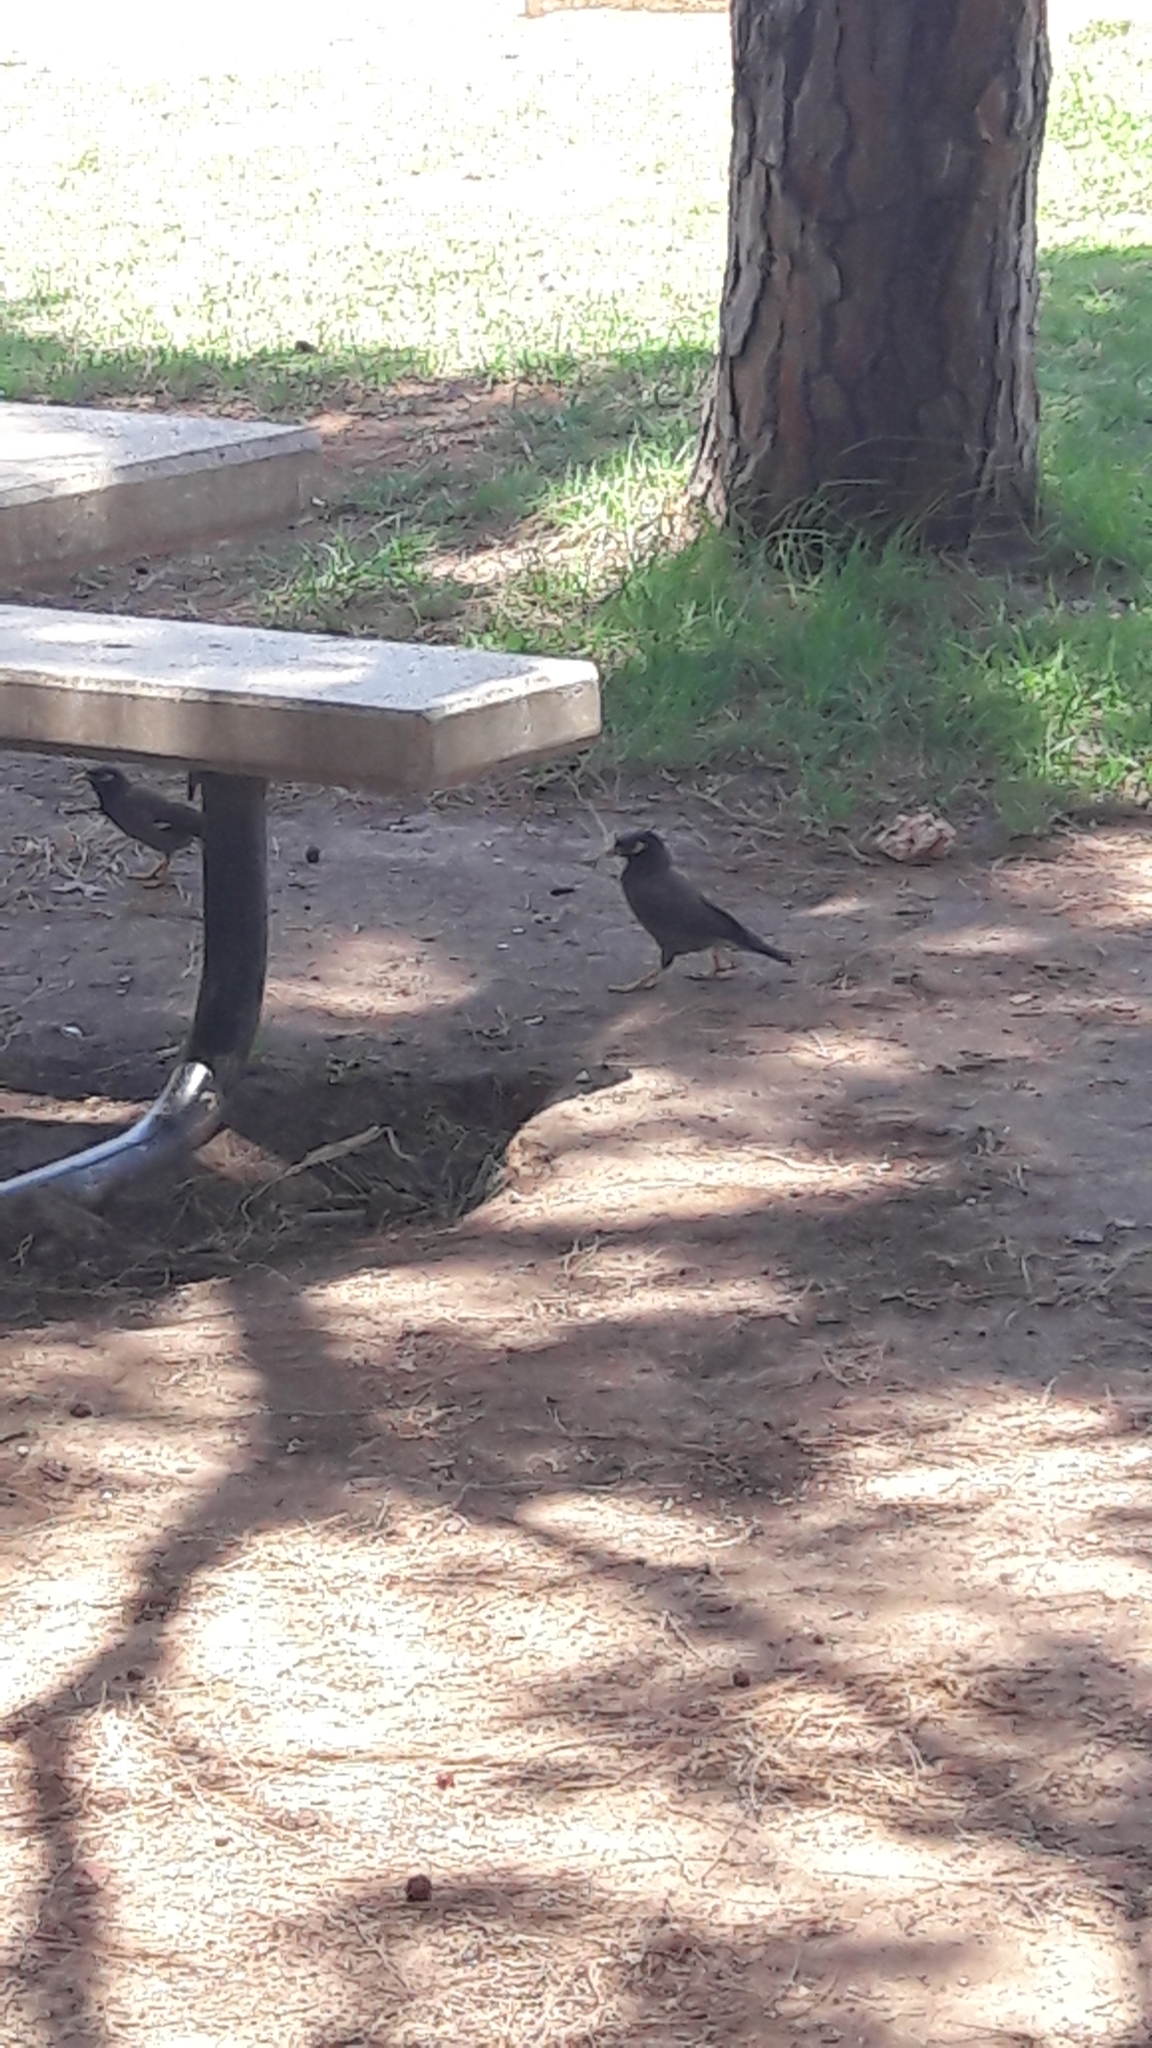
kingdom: Animalia
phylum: Chordata
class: Aves
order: Passeriformes
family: Sturnidae
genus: Acridotheres
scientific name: Acridotheres tristis
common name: Common myna
